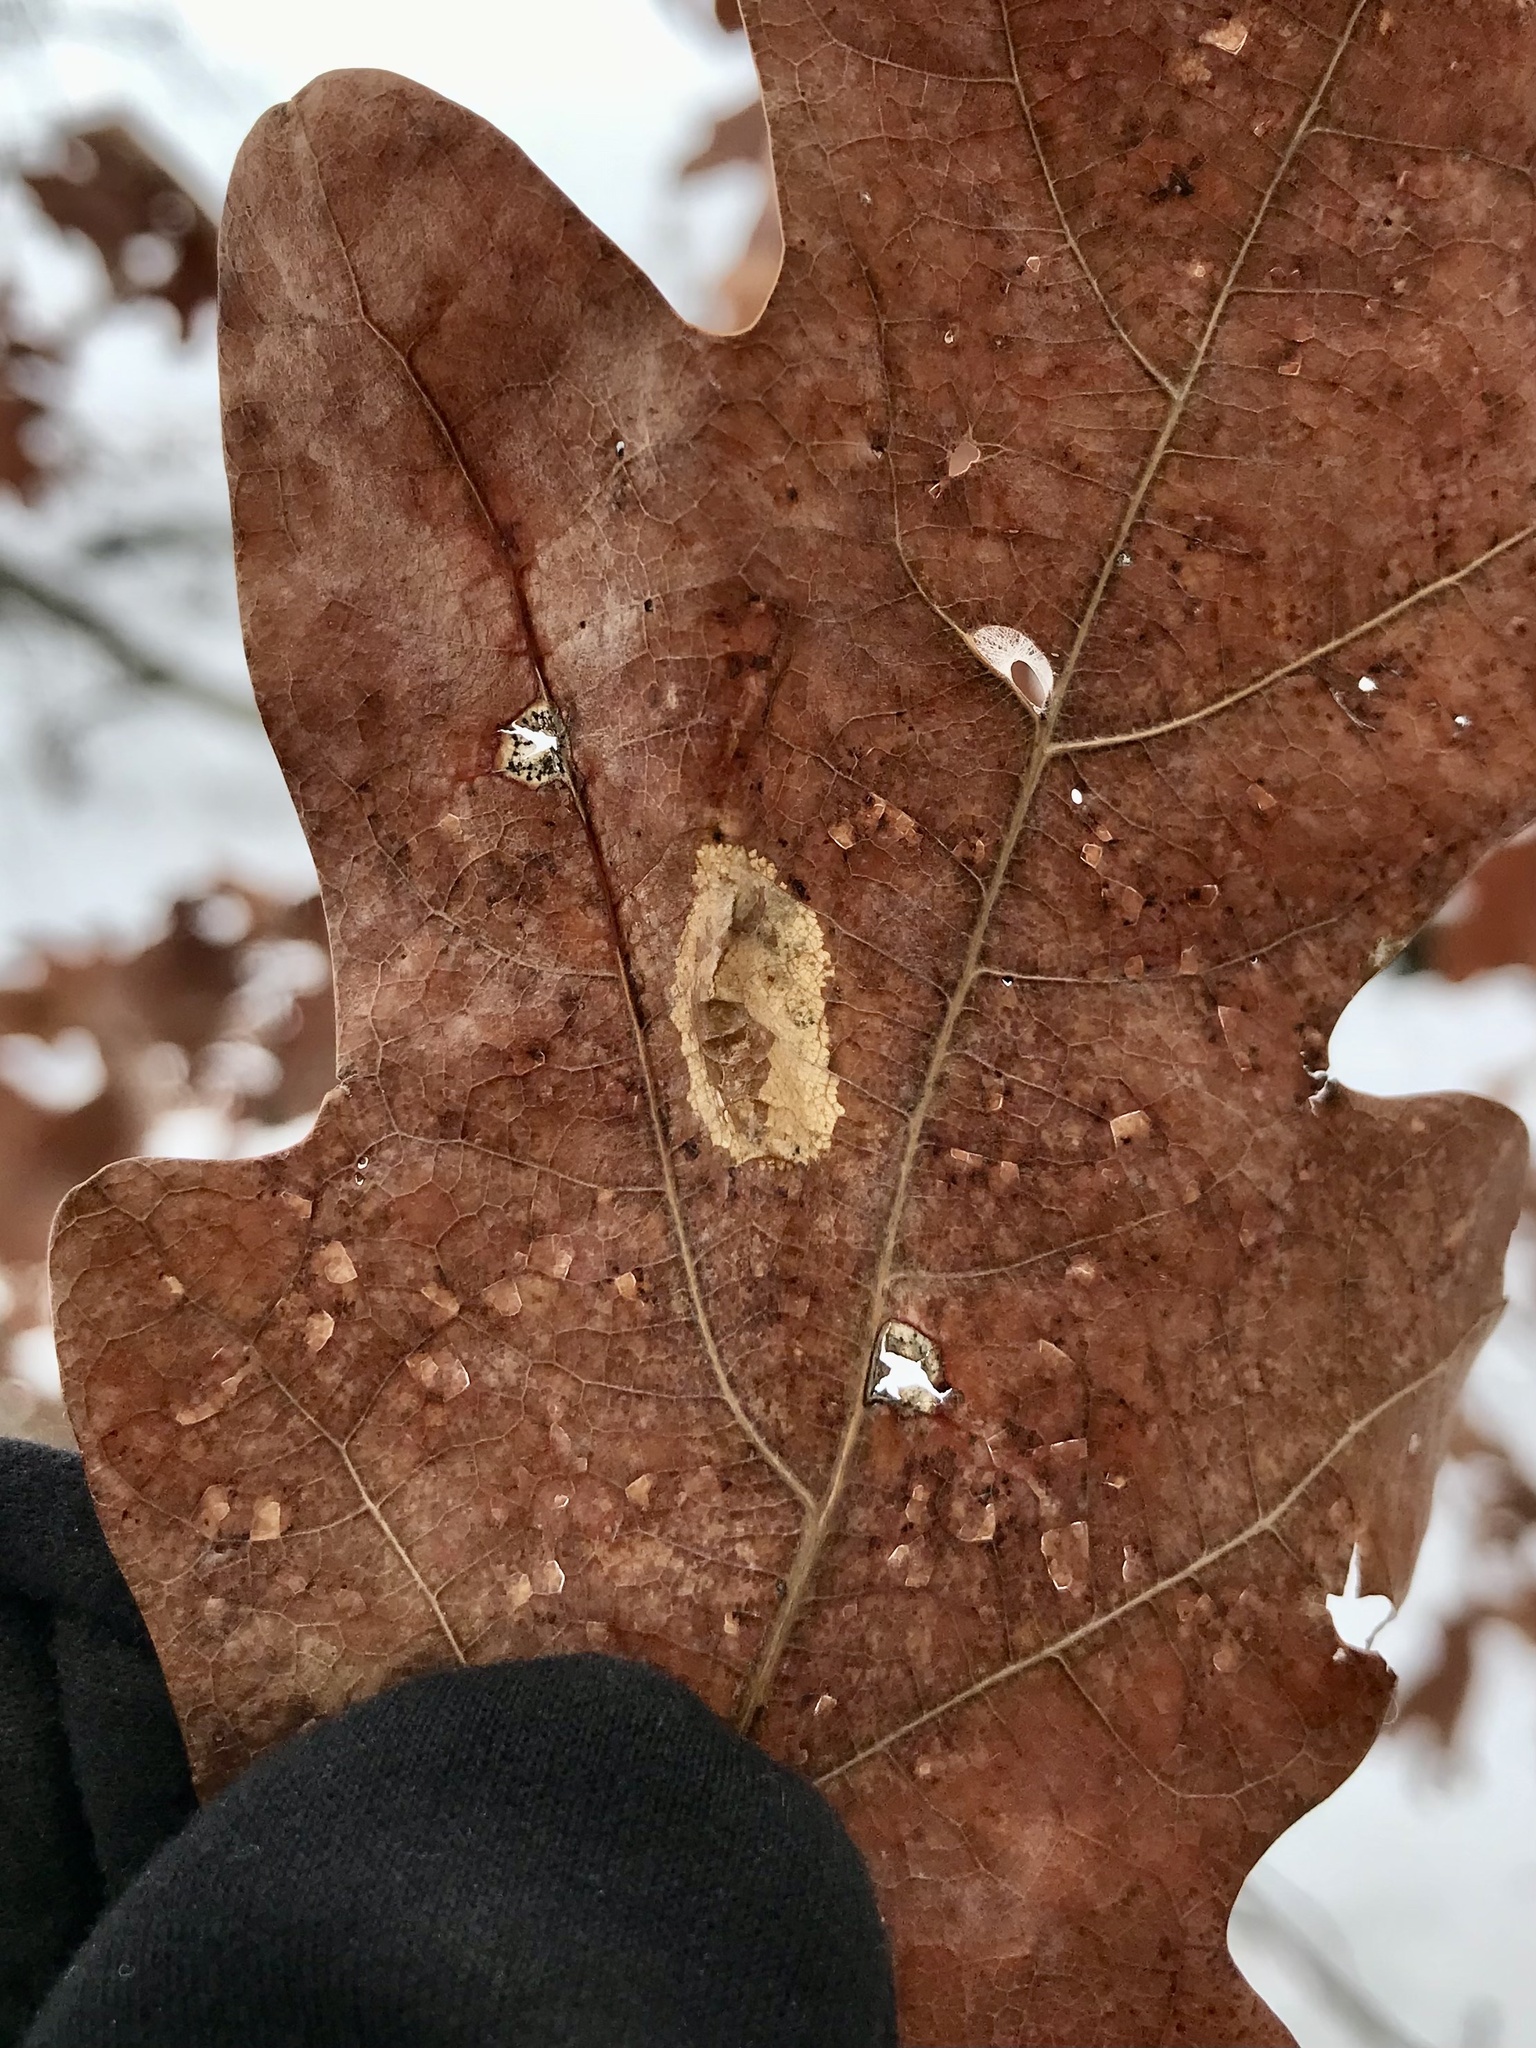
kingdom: Animalia
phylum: Arthropoda
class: Insecta
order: Lepidoptera
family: Gracillariidae
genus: Phyllonorycter
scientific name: Phyllonorycter argentifimbriella
